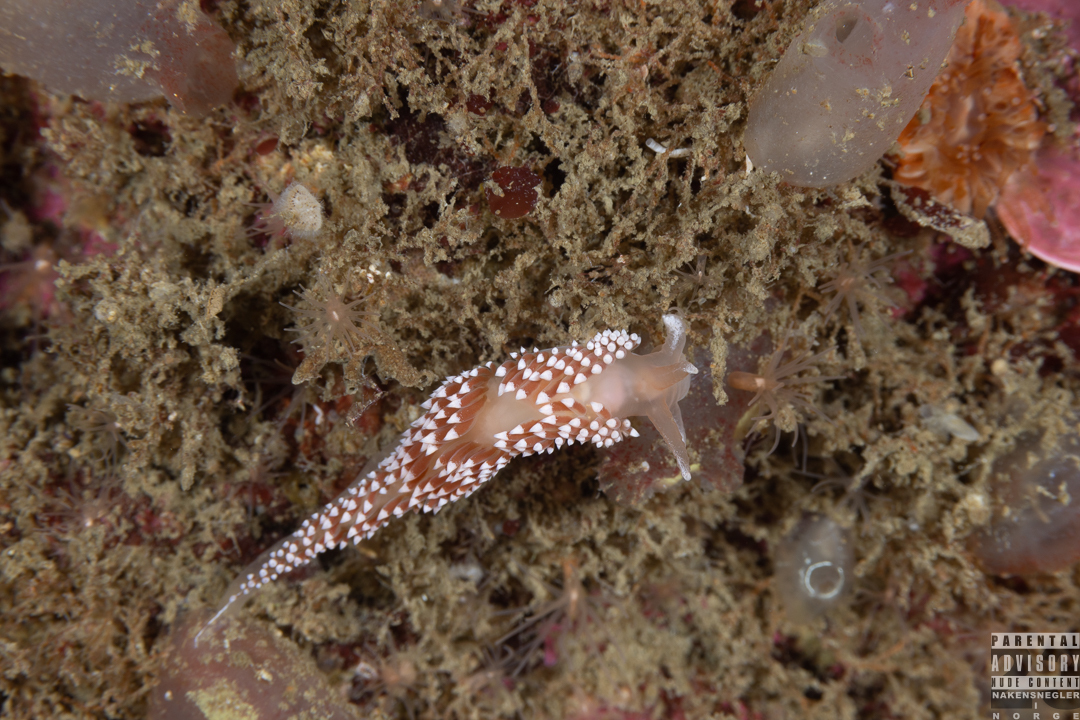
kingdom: Animalia
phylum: Mollusca
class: Gastropoda
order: Nudibranchia
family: Coryphellidae
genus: Coryphella
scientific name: Coryphella verrucosa
